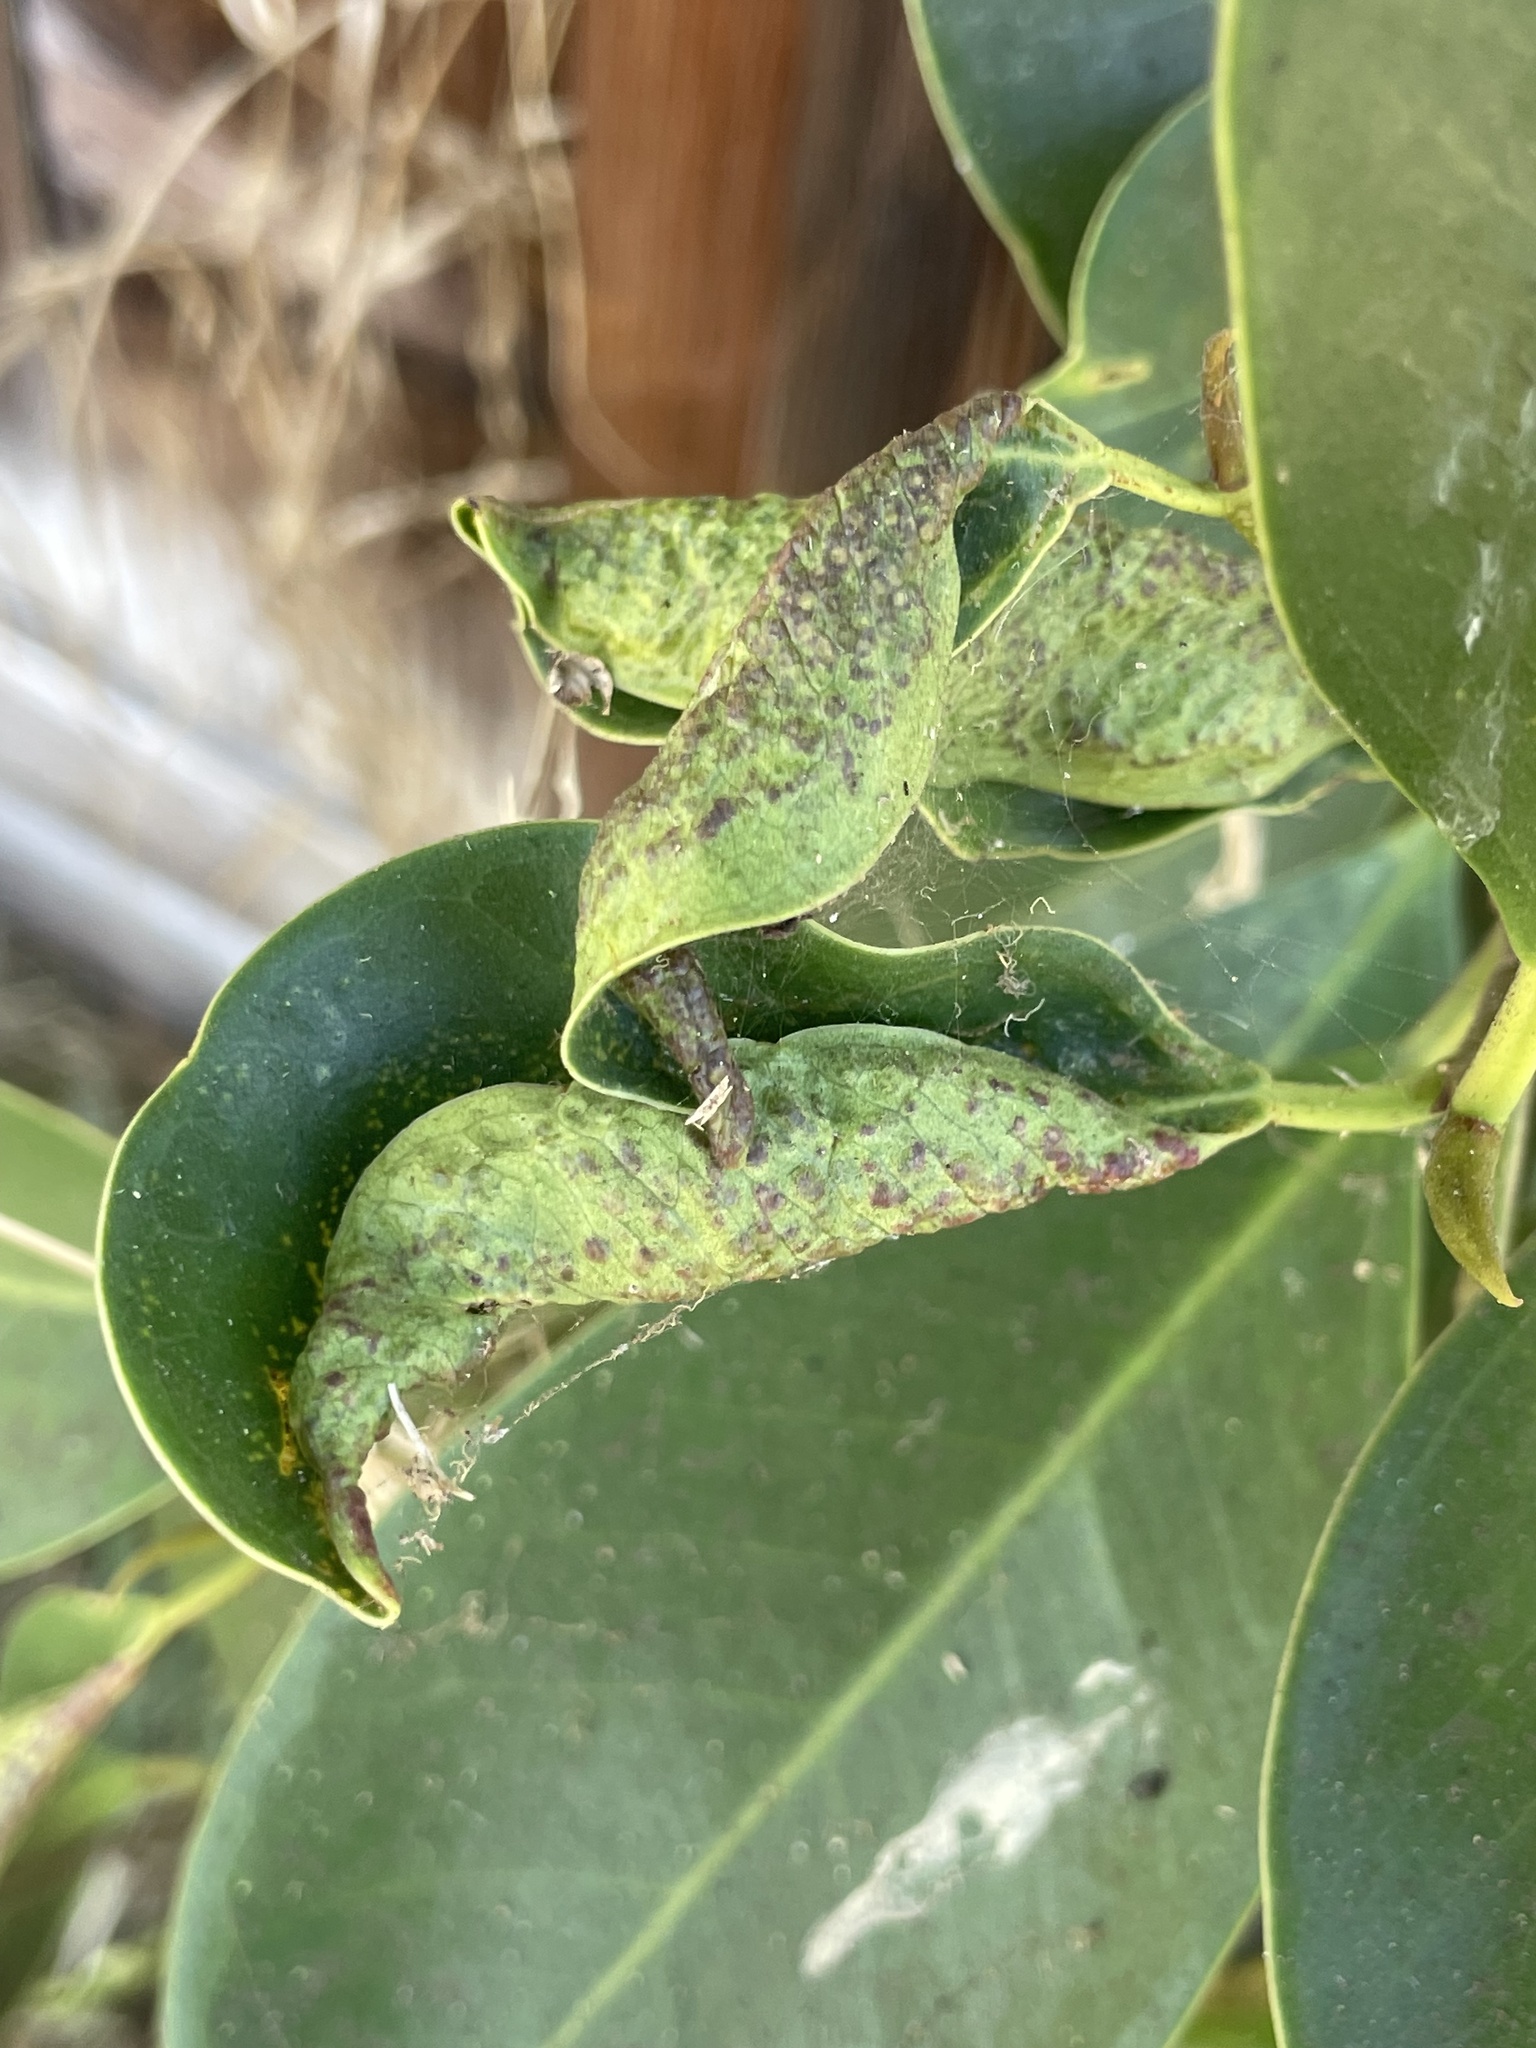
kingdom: Animalia
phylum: Arthropoda
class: Insecta
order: Thysanoptera
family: Phlaeothripidae
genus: Gynaikothrips
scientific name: Gynaikothrips ficorum
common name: Cuban laurel thrips
